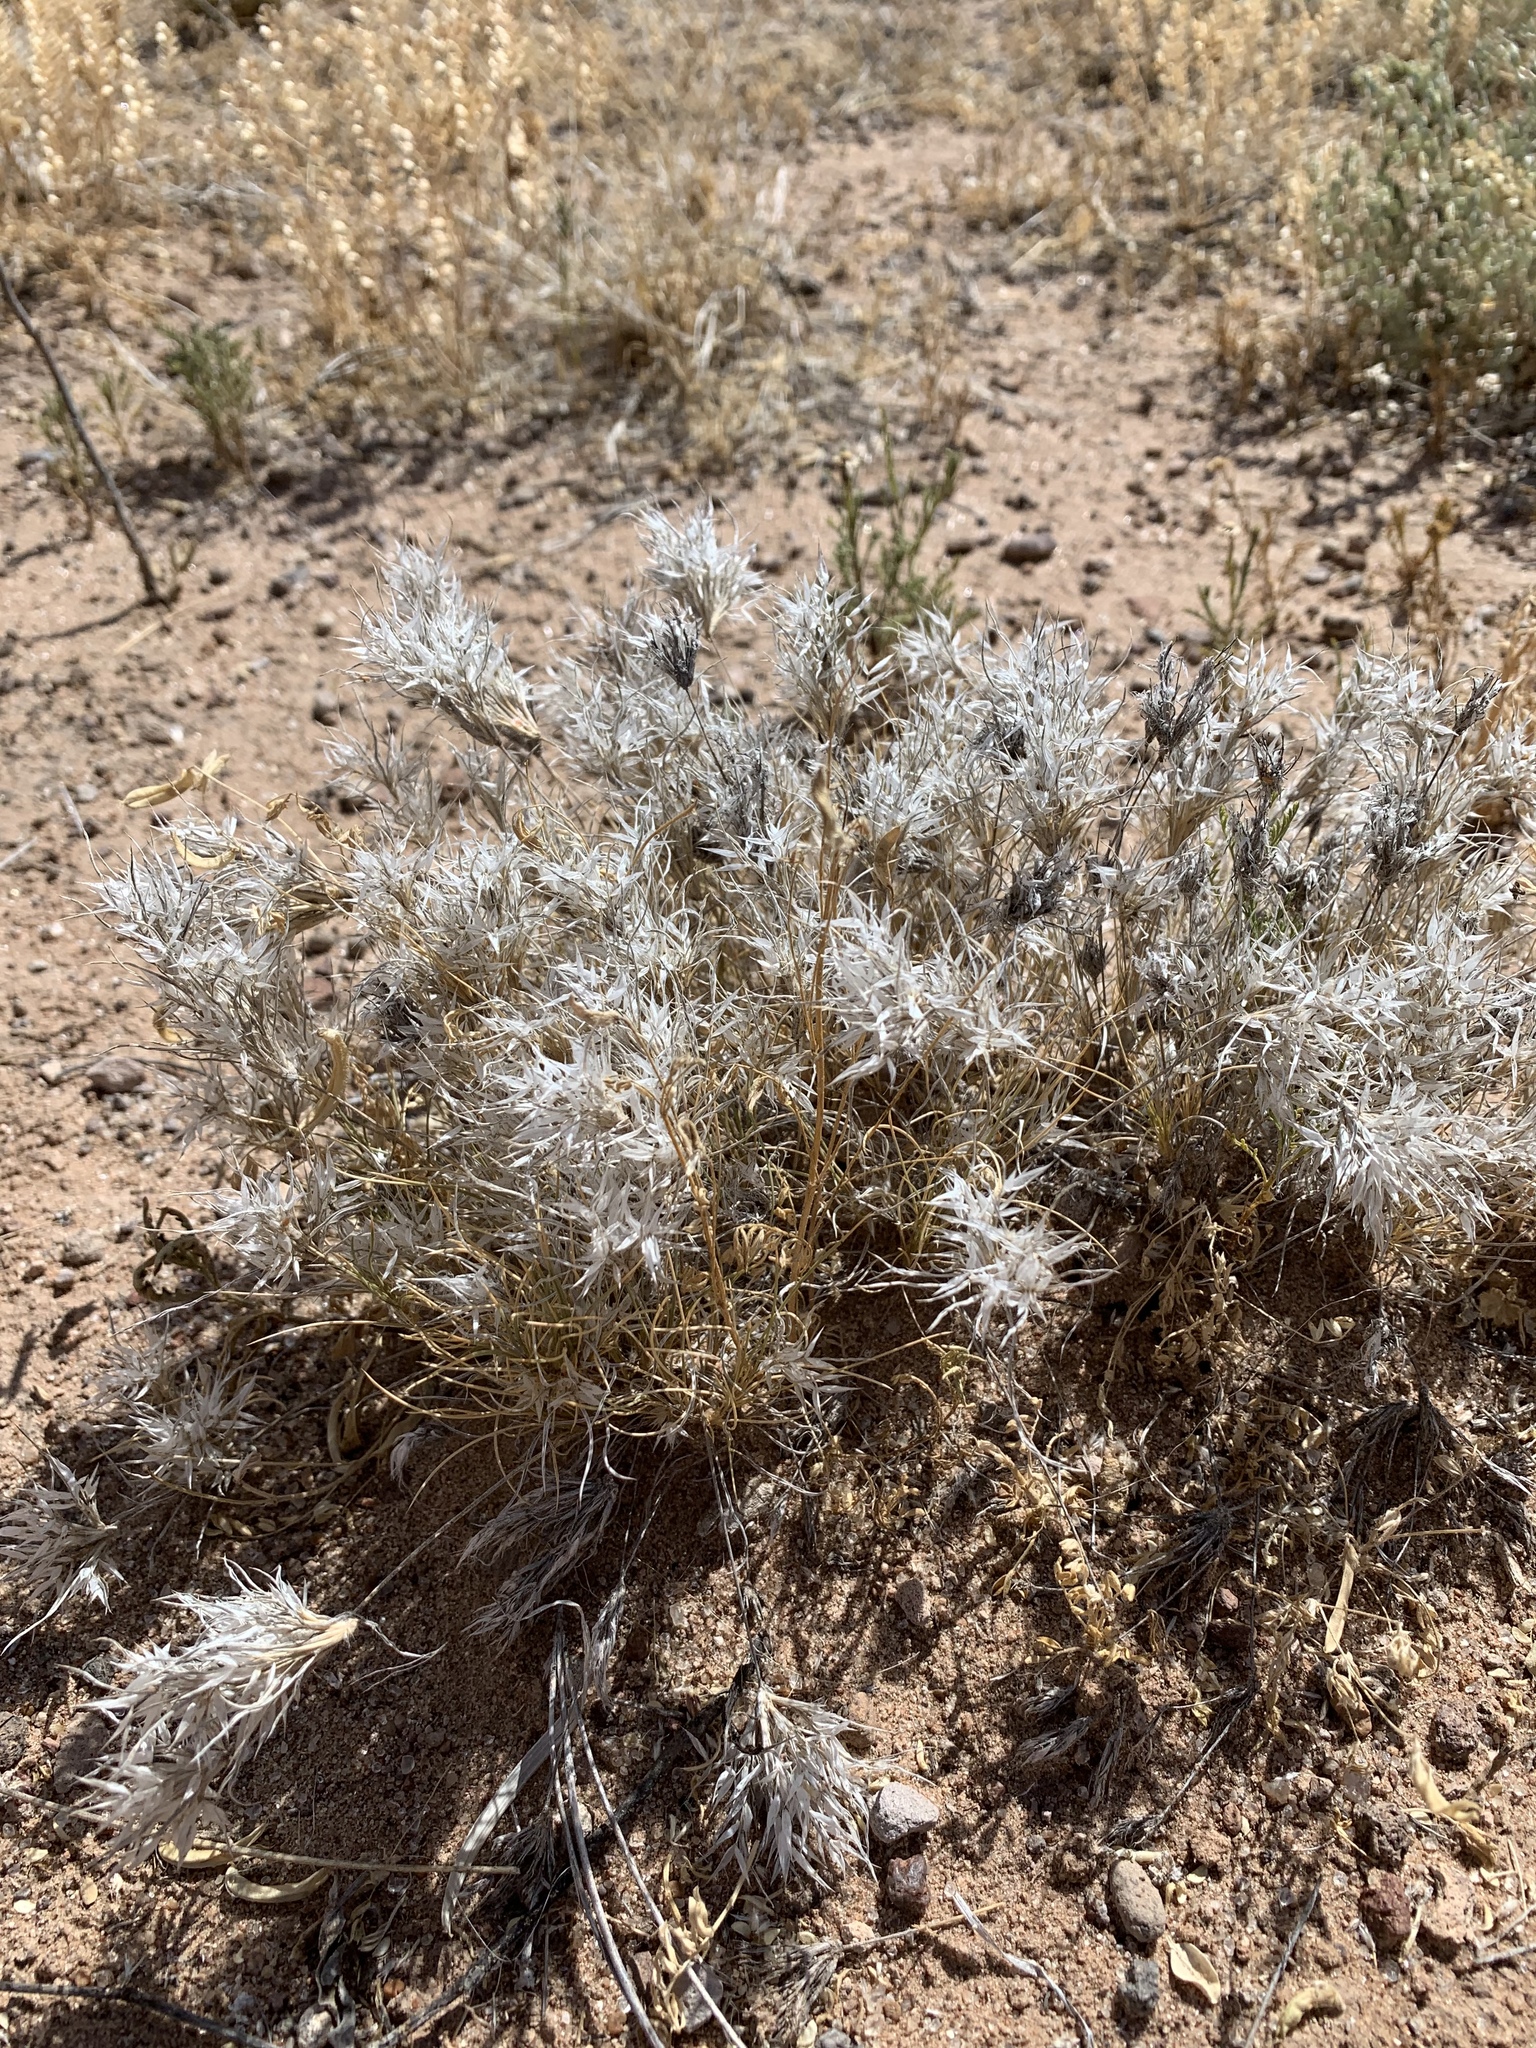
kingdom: Plantae
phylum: Tracheophyta
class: Magnoliopsida
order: Caryophyllales
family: Amaranthaceae
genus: Krascheninnikovia
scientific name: Krascheninnikovia lanata
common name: Winterfat
